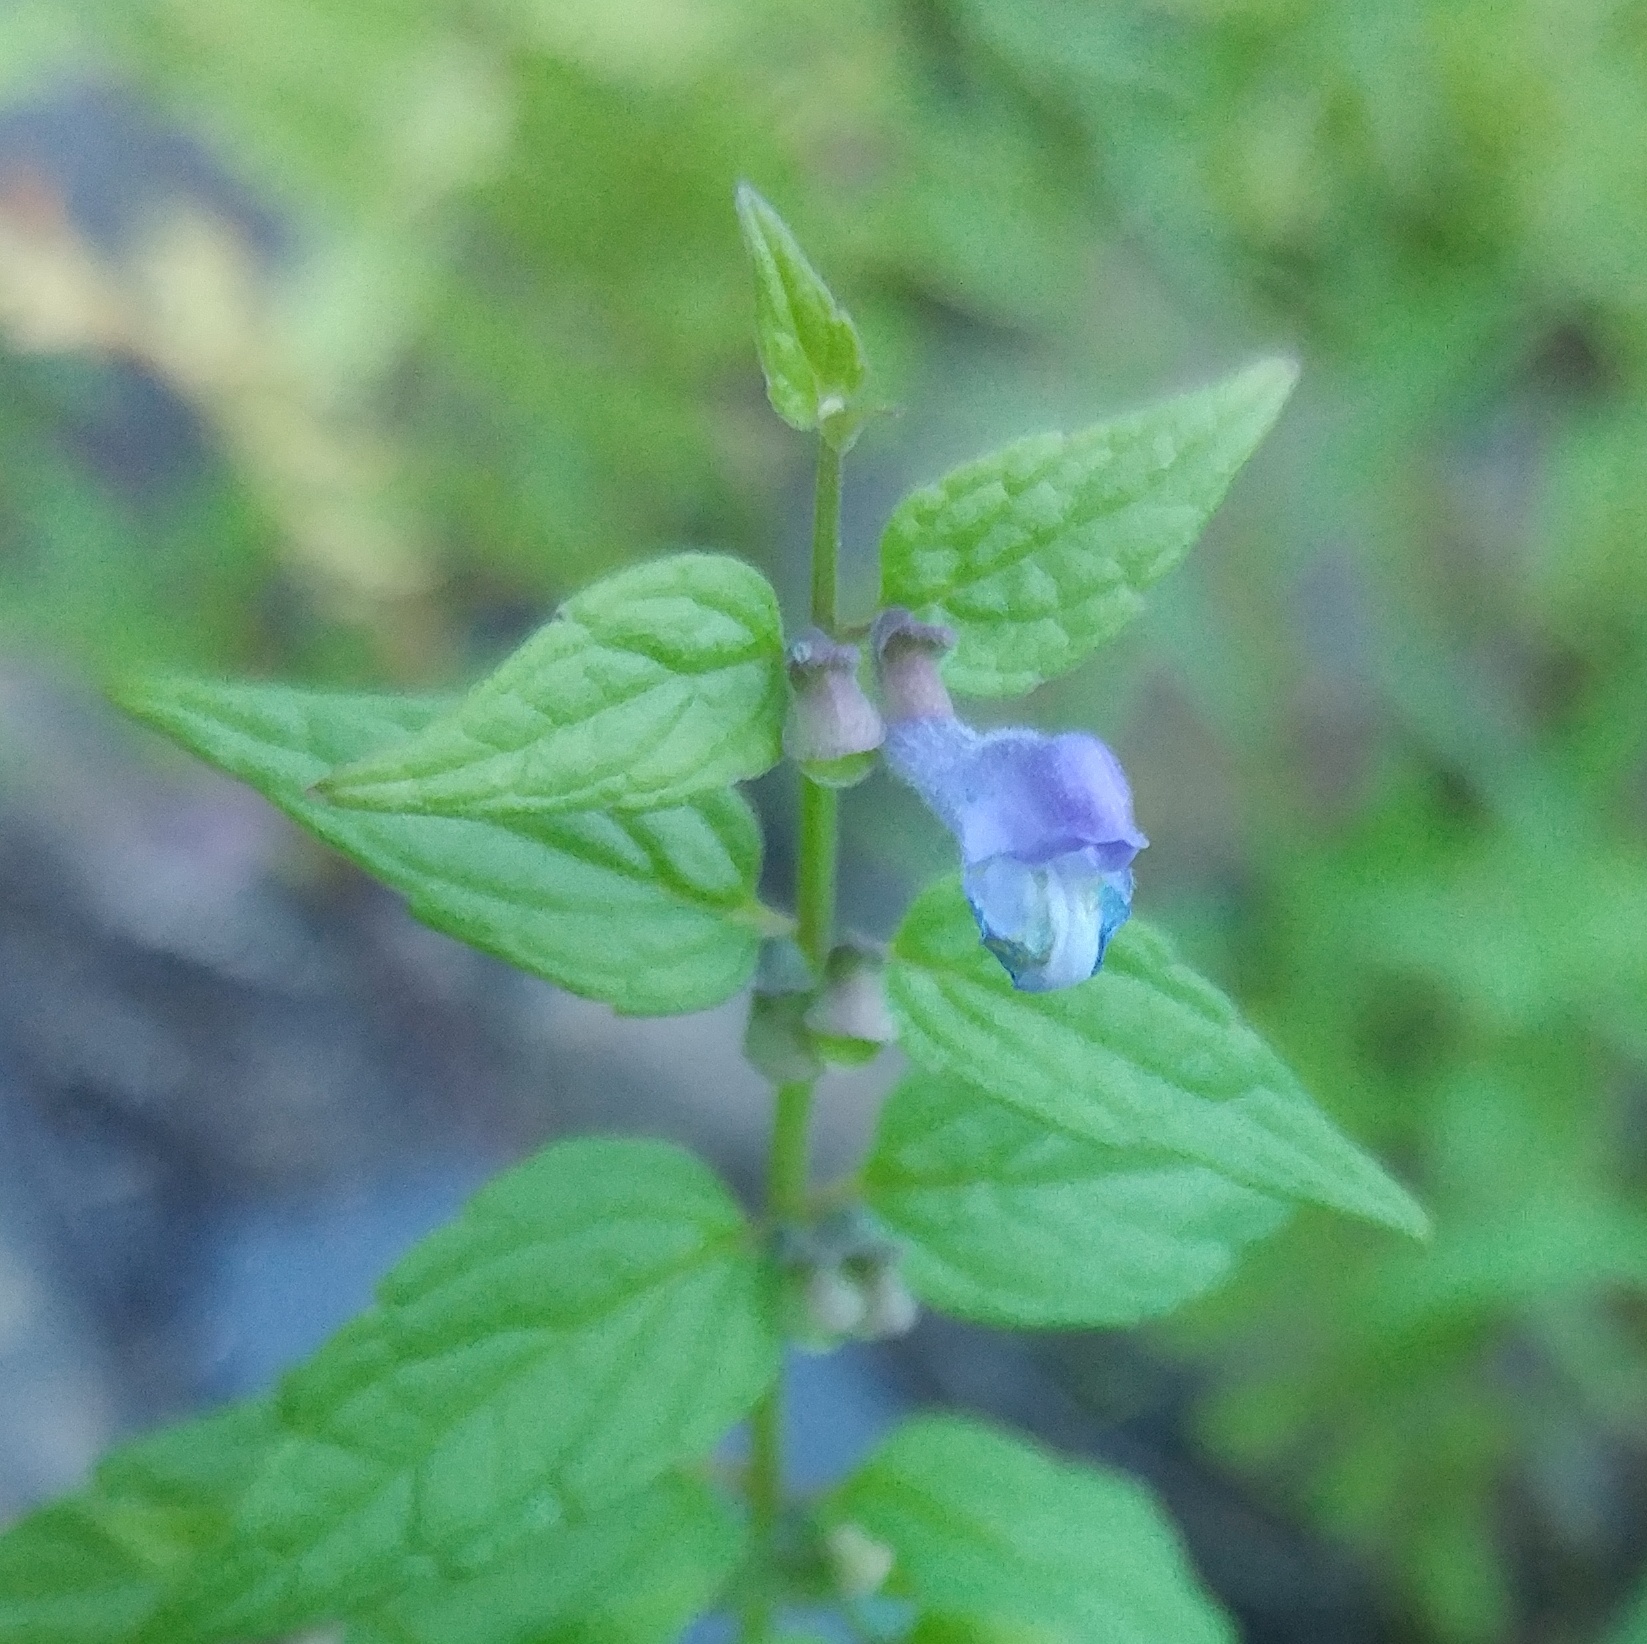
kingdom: Plantae
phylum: Tracheophyta
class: Magnoliopsida
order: Lamiales
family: Lamiaceae
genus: Scutellaria
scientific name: Scutellaria galericulata
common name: Skullcap
